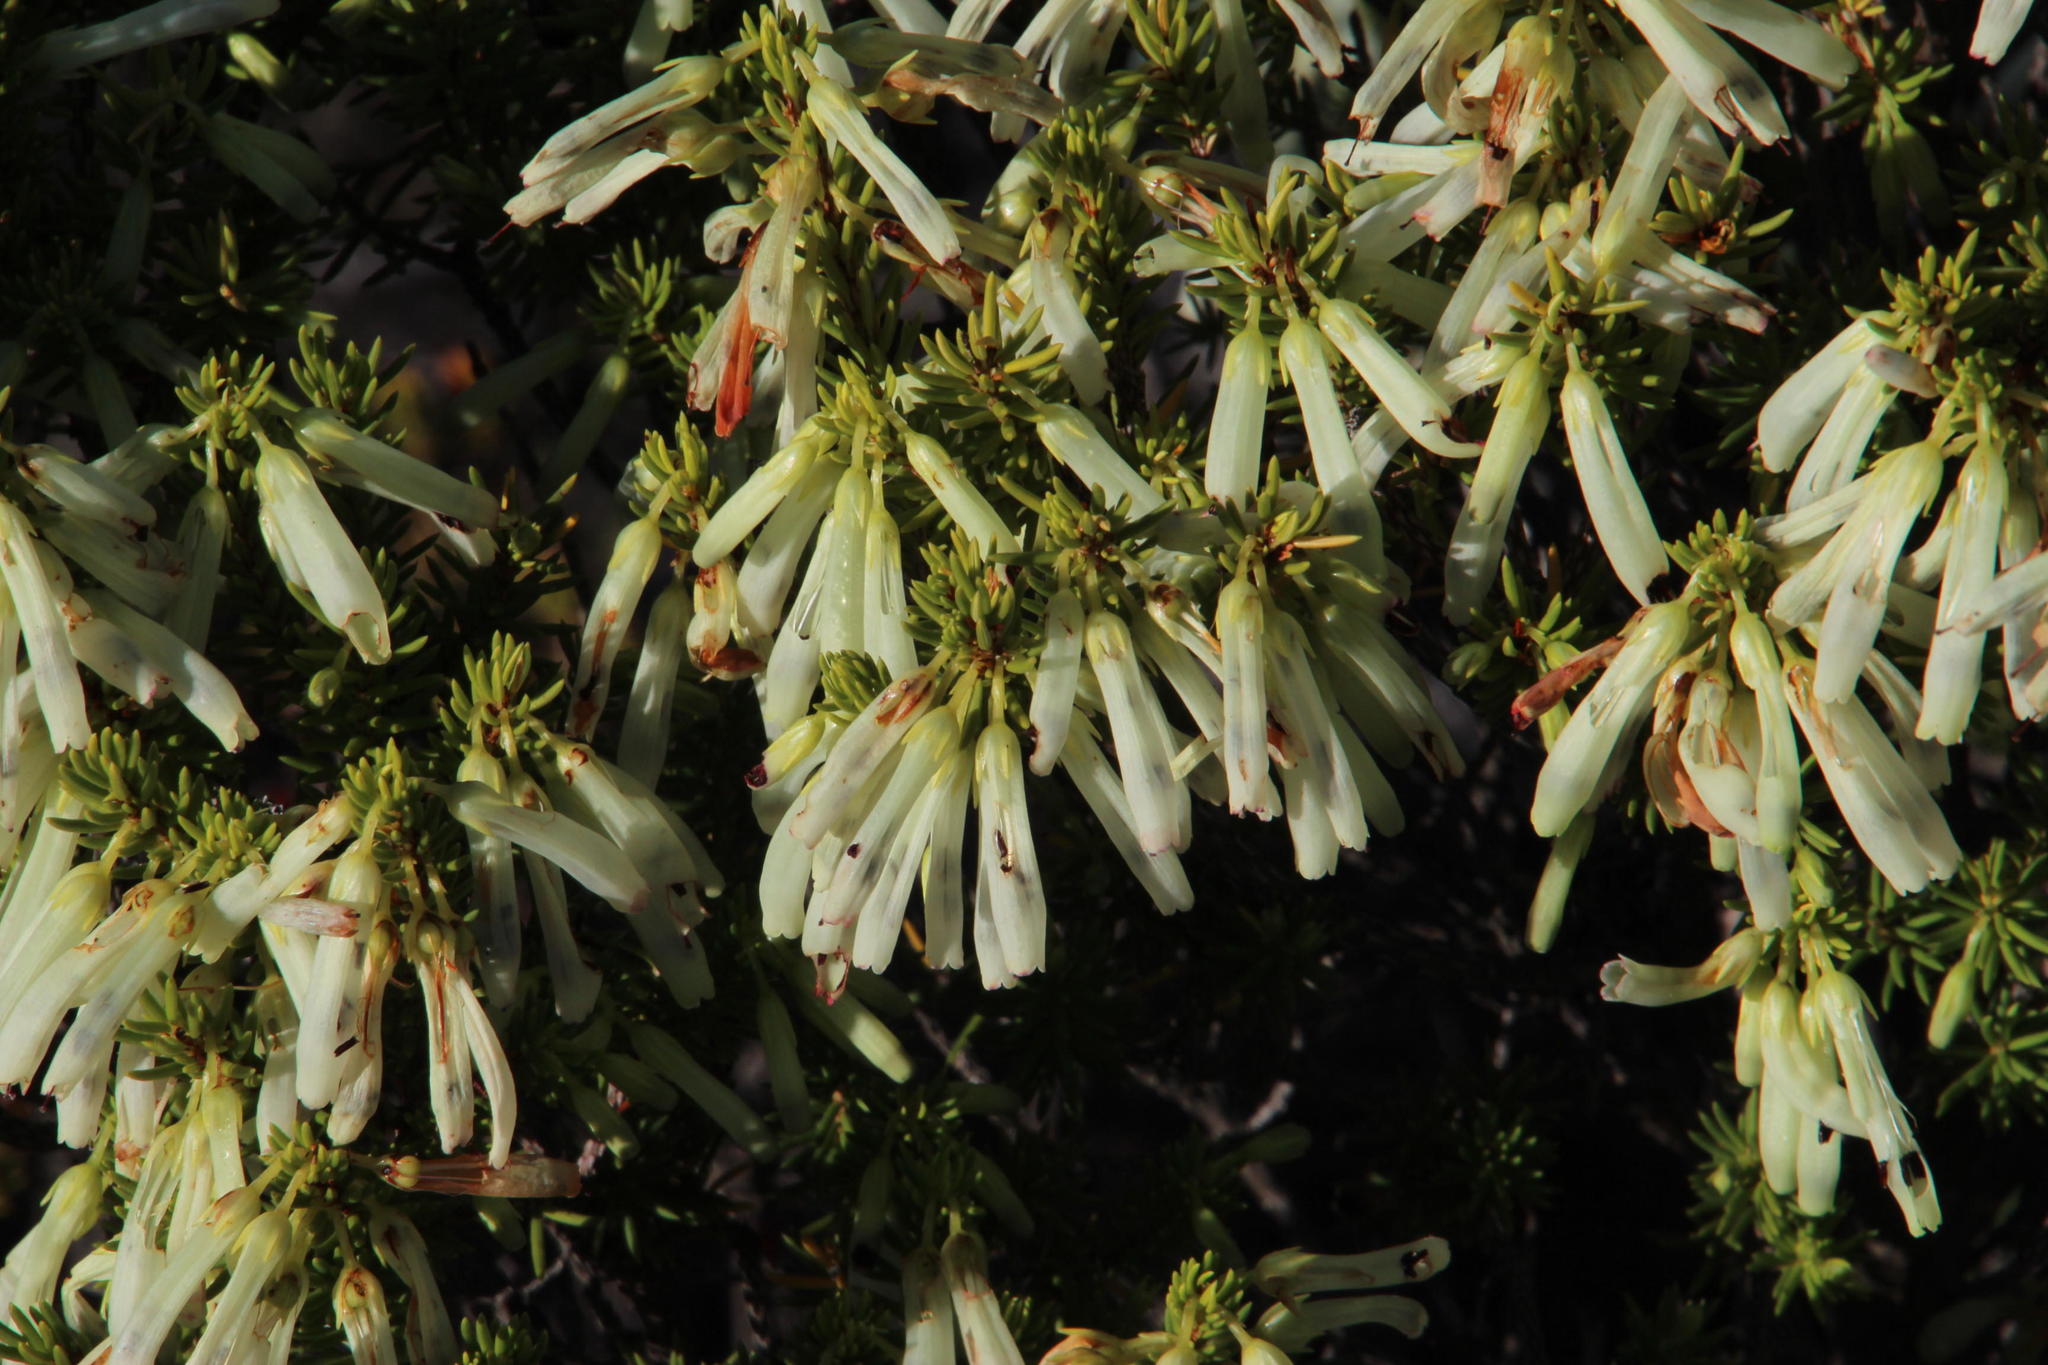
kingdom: Plantae
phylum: Tracheophyta
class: Magnoliopsida
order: Ericales
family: Ericaceae
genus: Erica
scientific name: Erica mammosa
